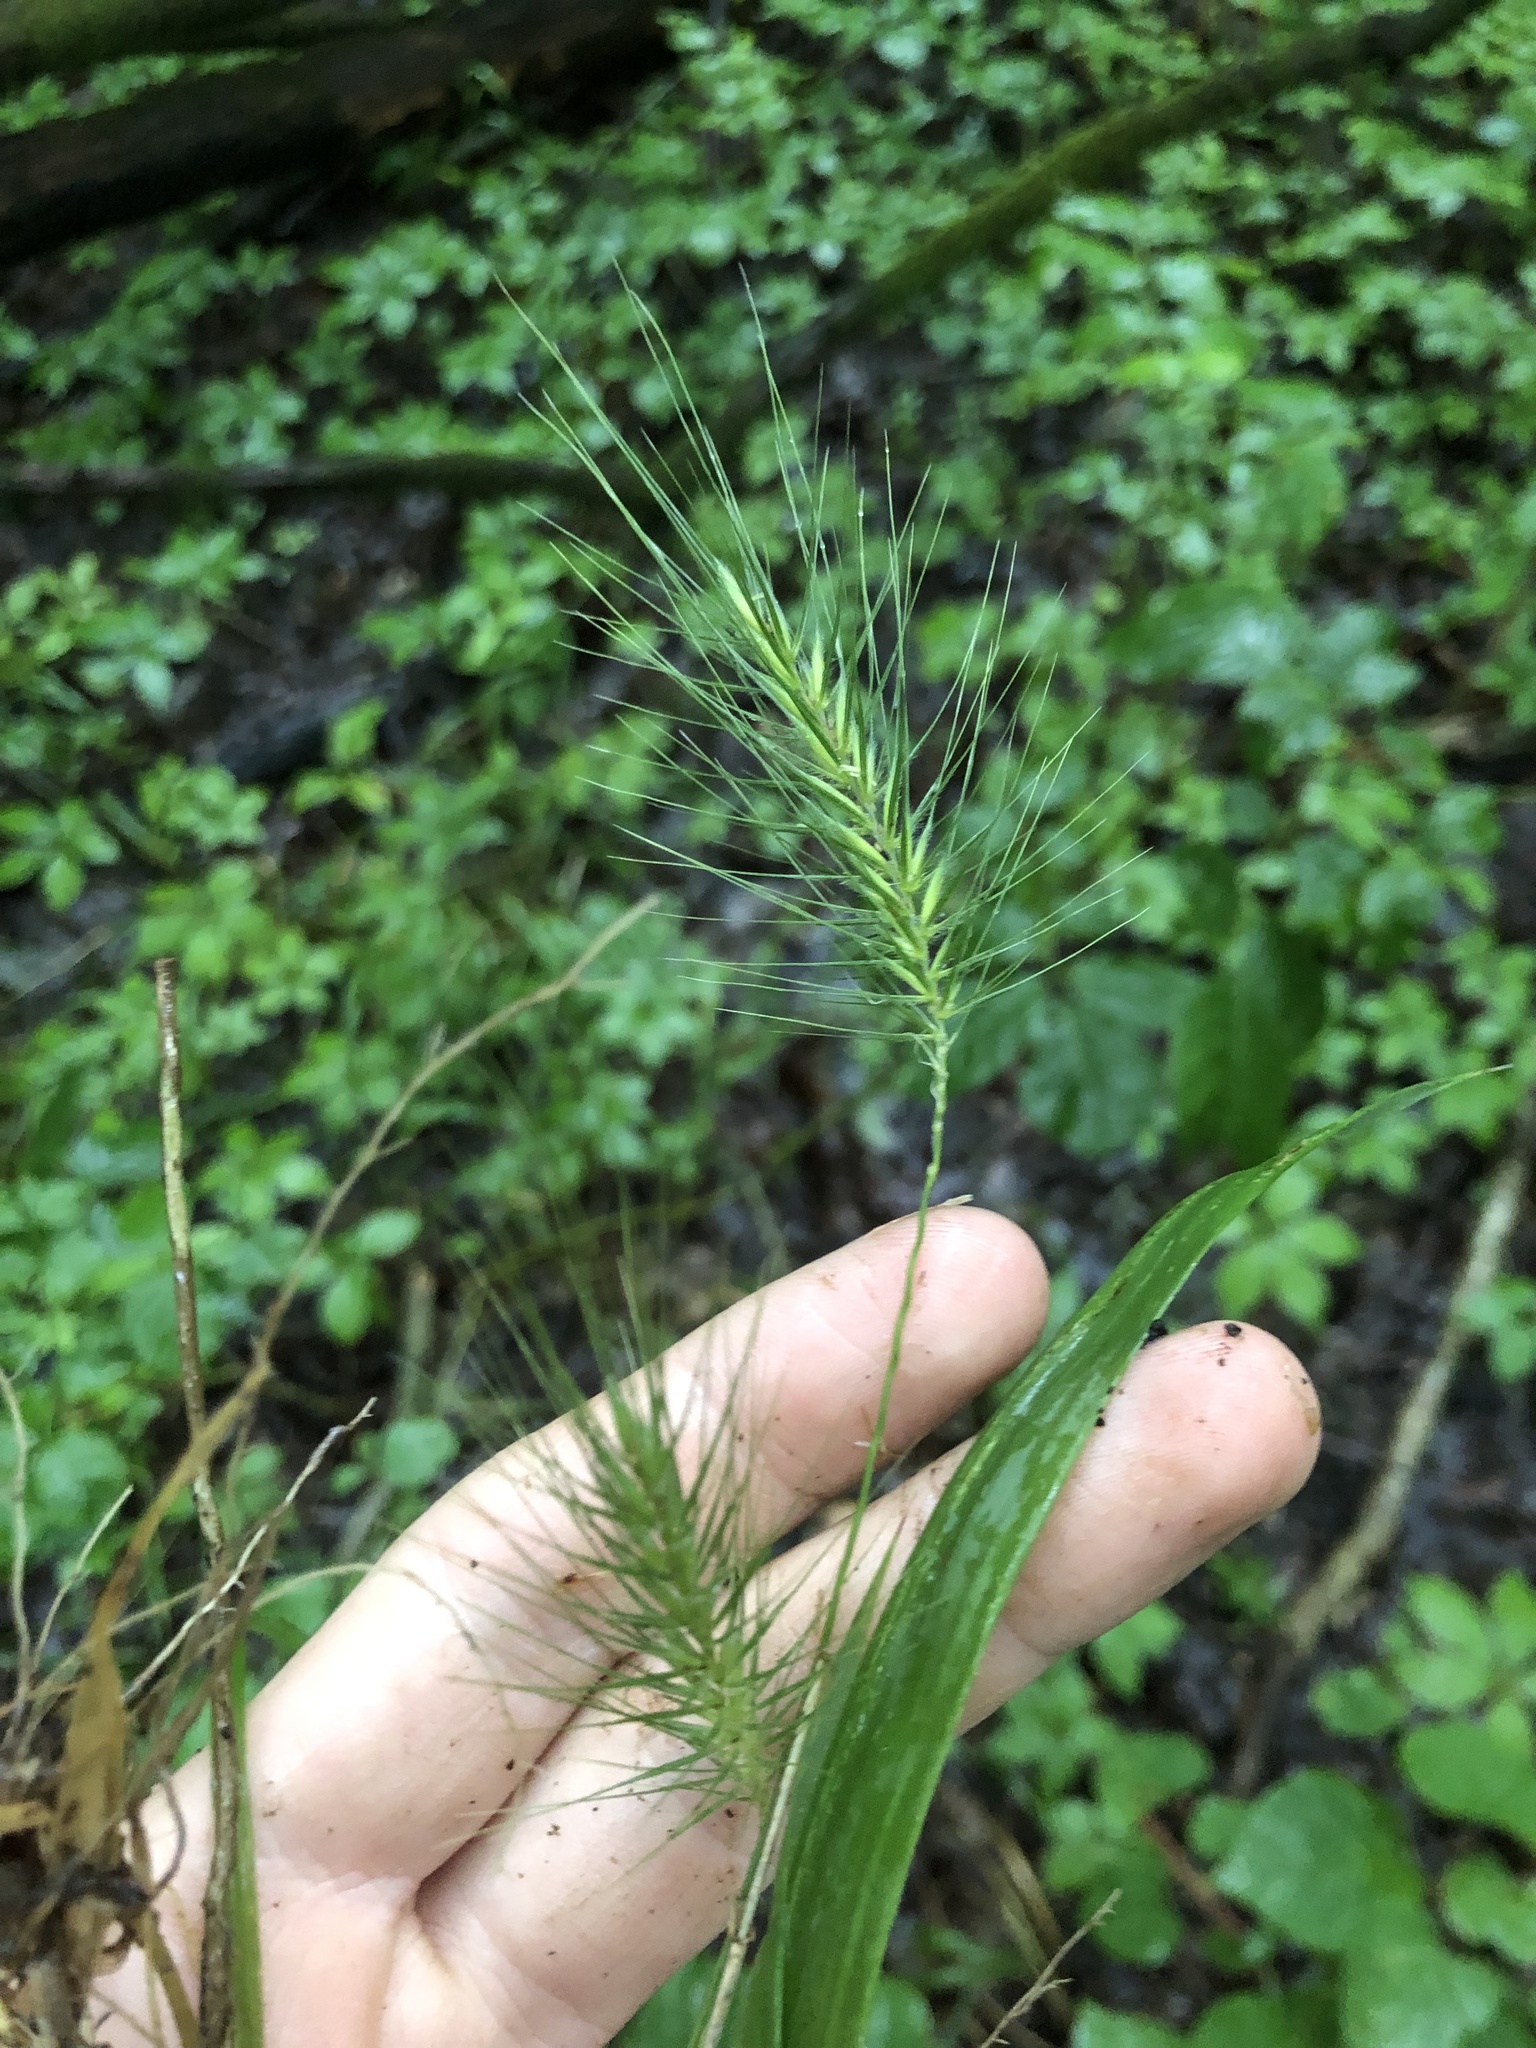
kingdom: Plantae
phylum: Tracheophyta
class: Liliopsida
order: Poales
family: Poaceae
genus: Elymus
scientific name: Elymus villosus
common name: Downy wild rye
